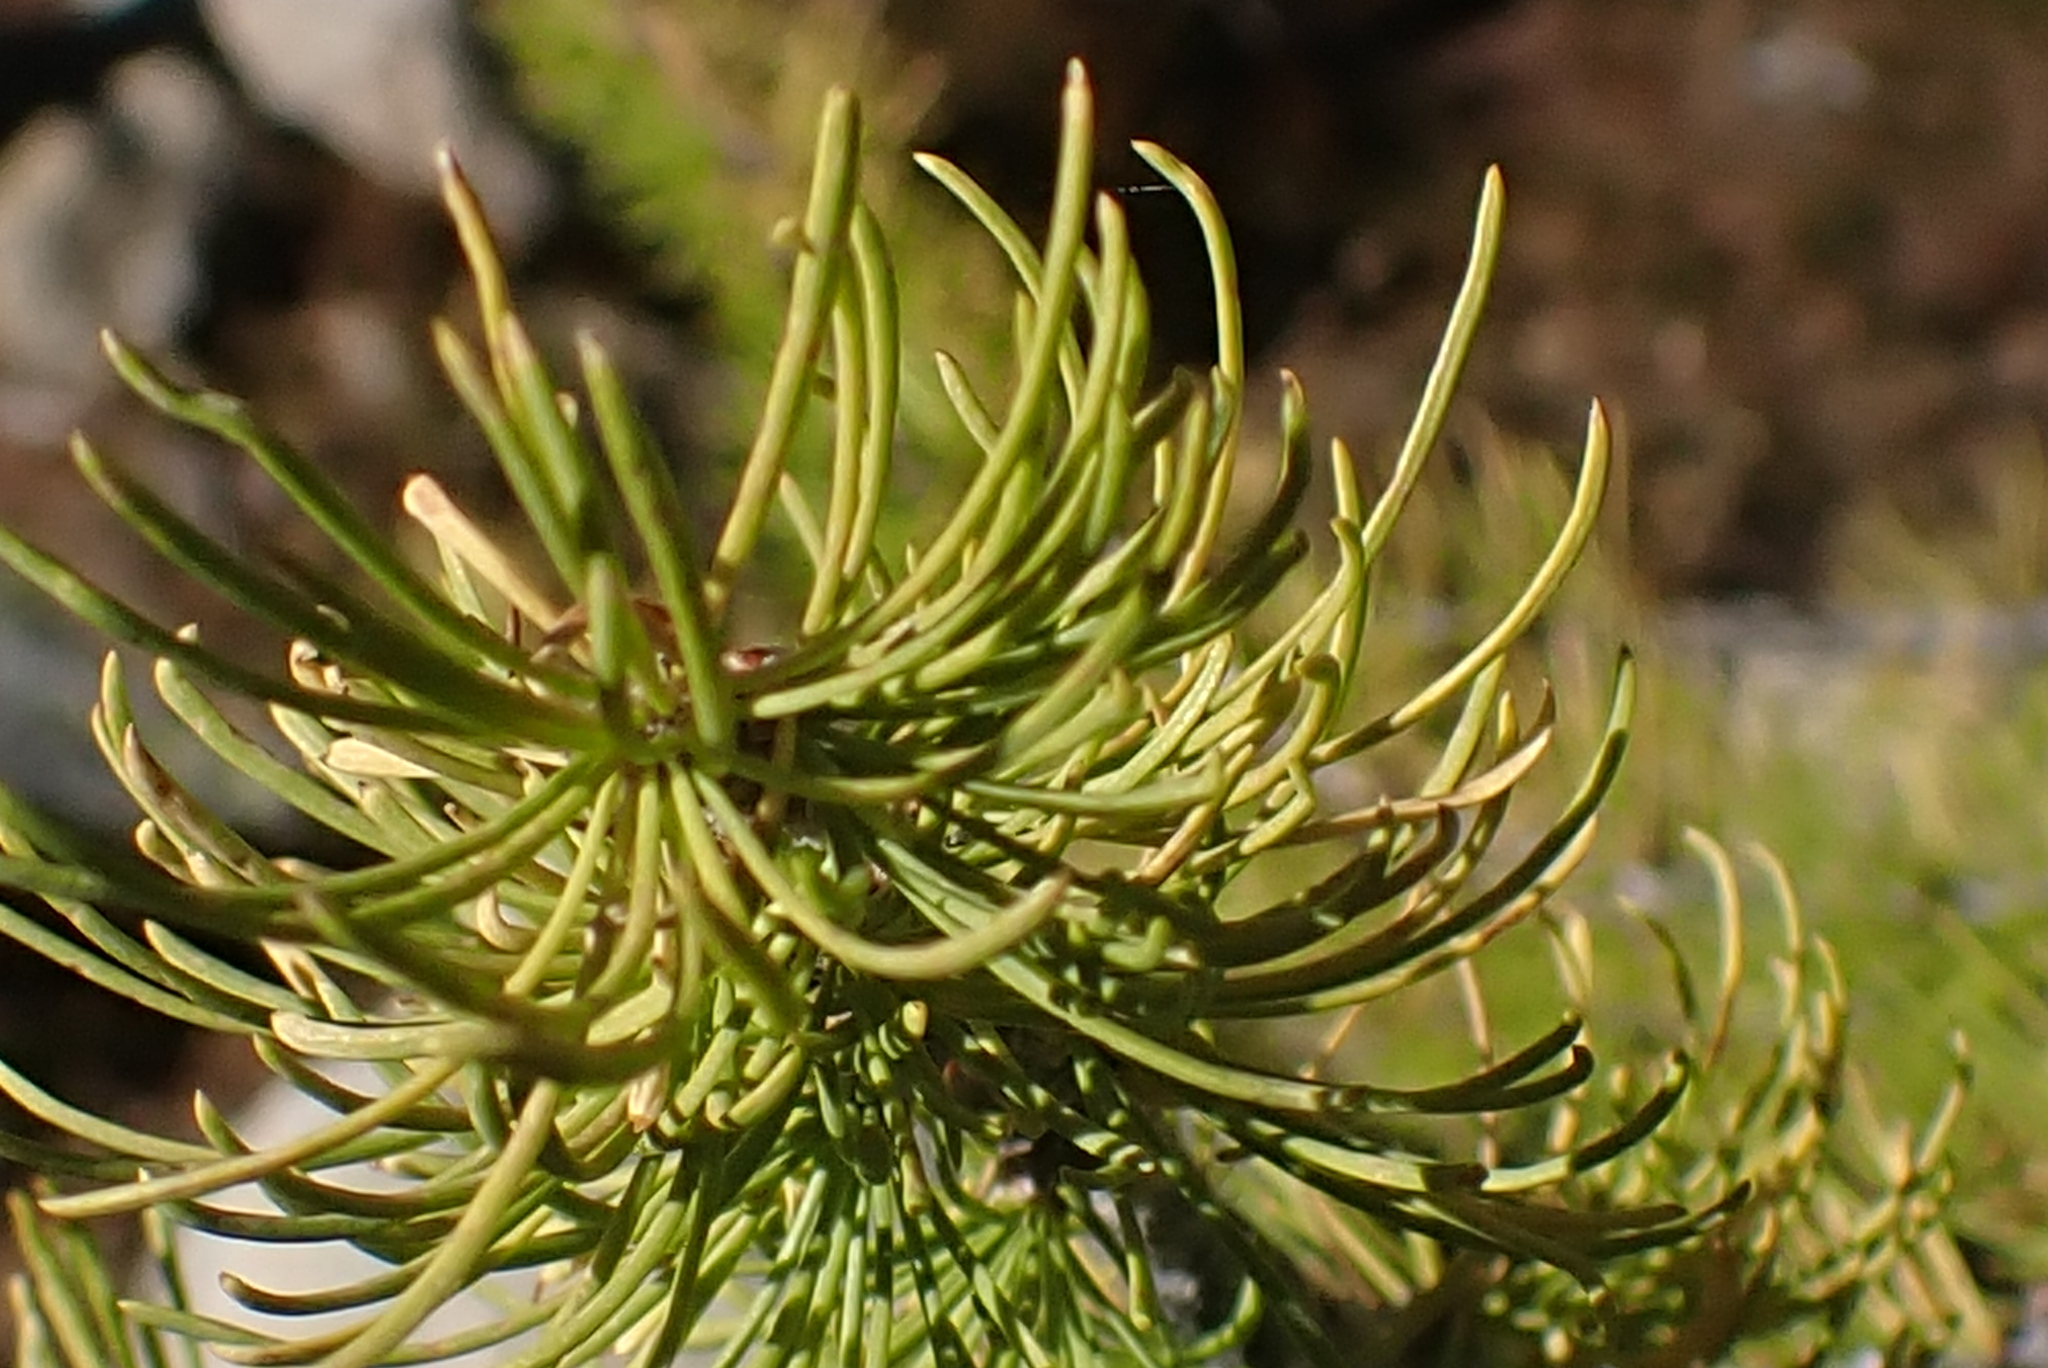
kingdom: Plantae
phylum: Tracheophyta
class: Pinopsida
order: Pinales
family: Pinaceae
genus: Larix
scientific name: Larix lyallii
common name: Alpine larch
